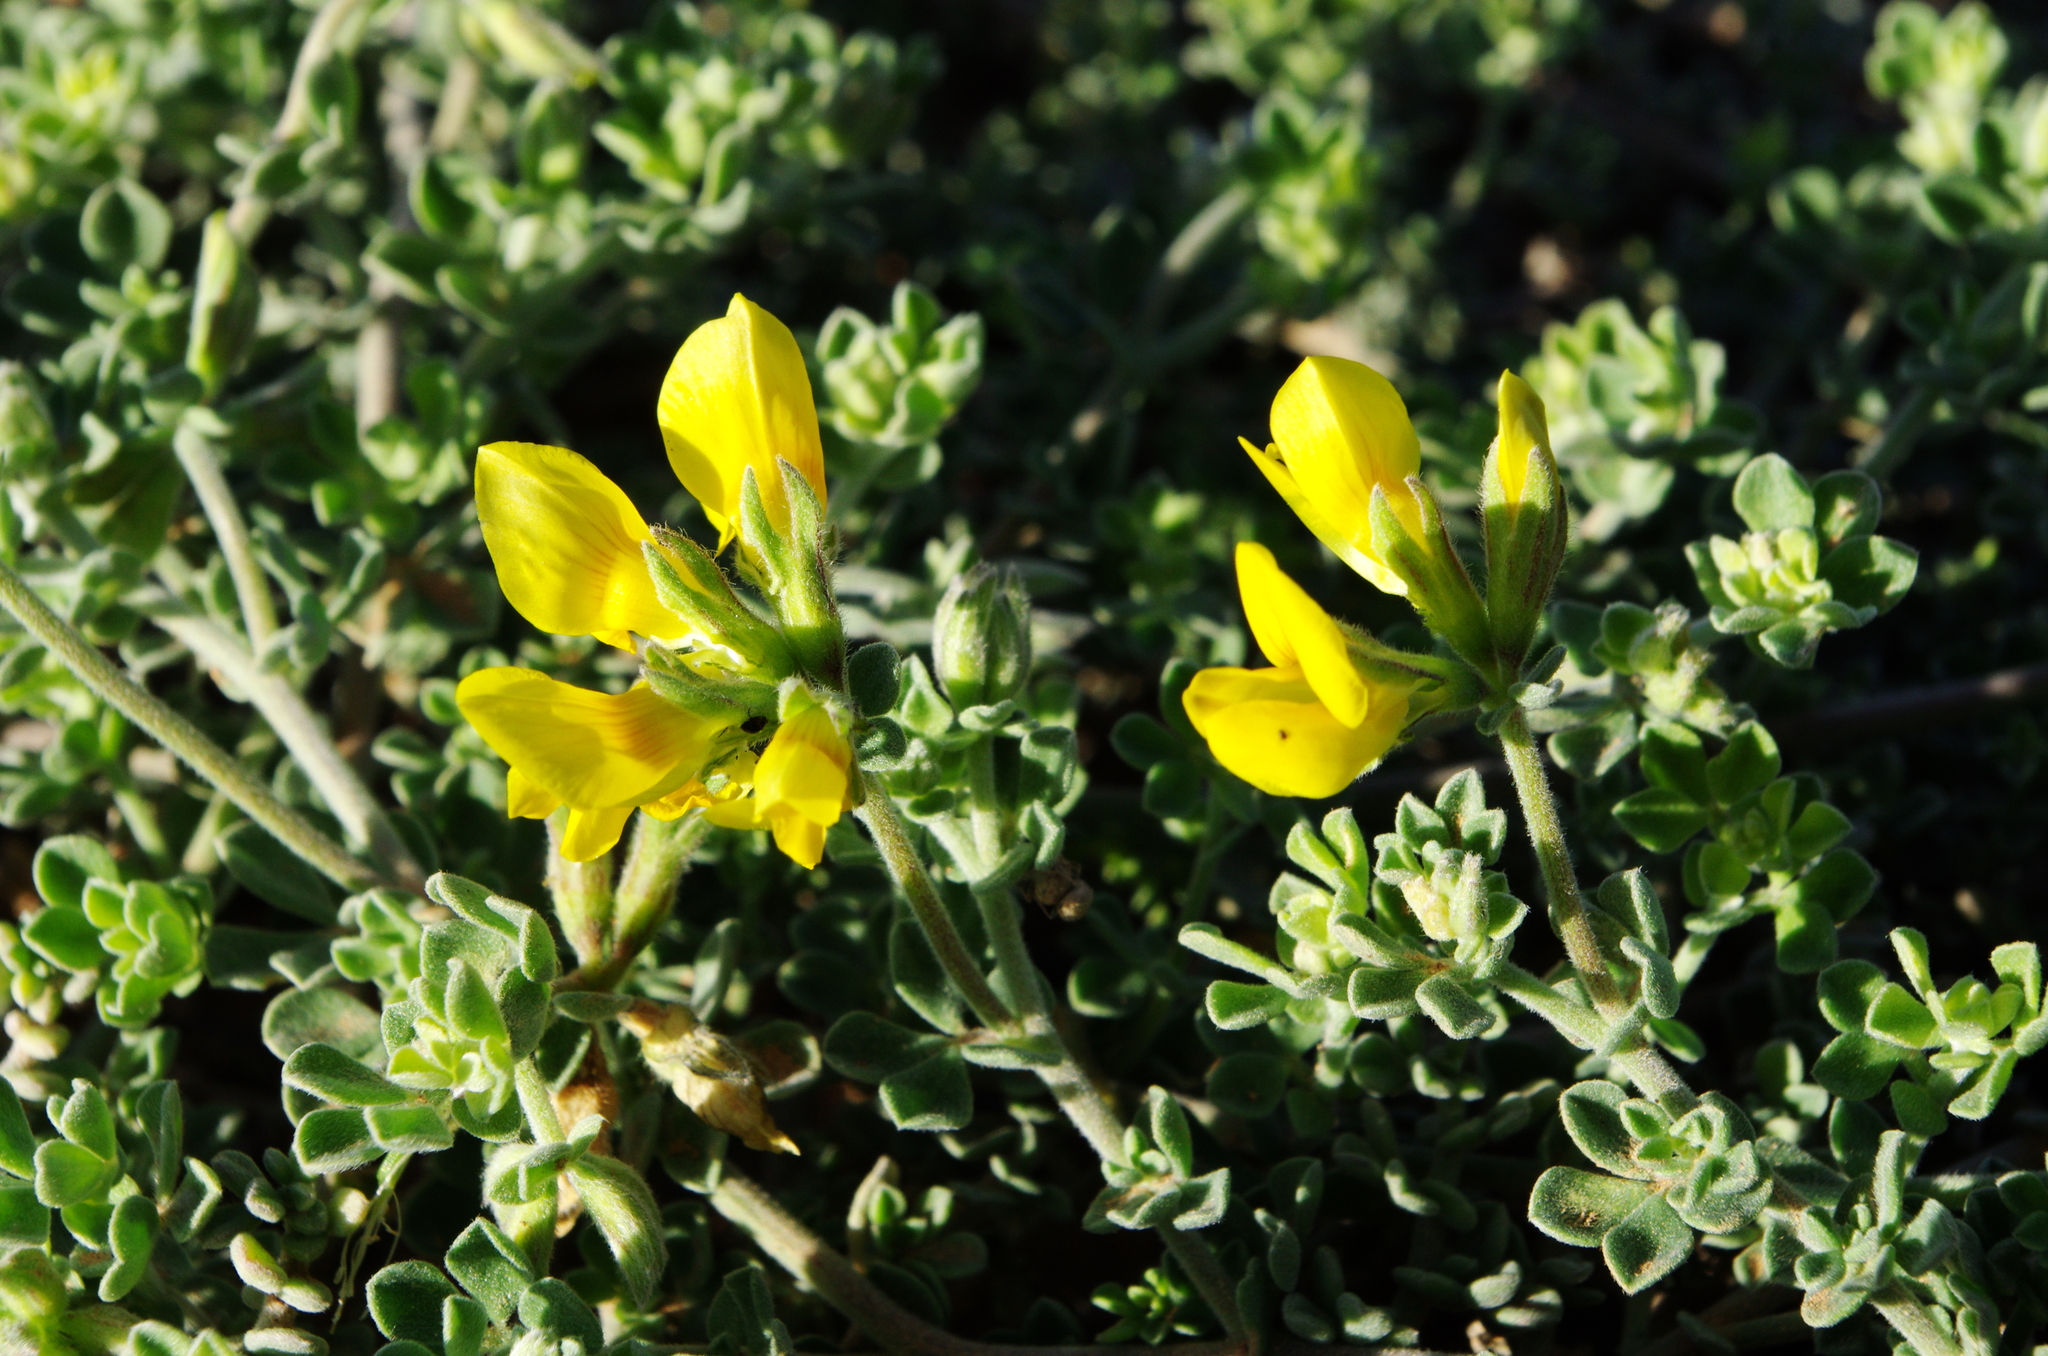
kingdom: Plantae
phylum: Tracheophyta
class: Magnoliopsida
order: Fabales
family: Fabaceae
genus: Lotus
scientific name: Lotus lancerottensis
